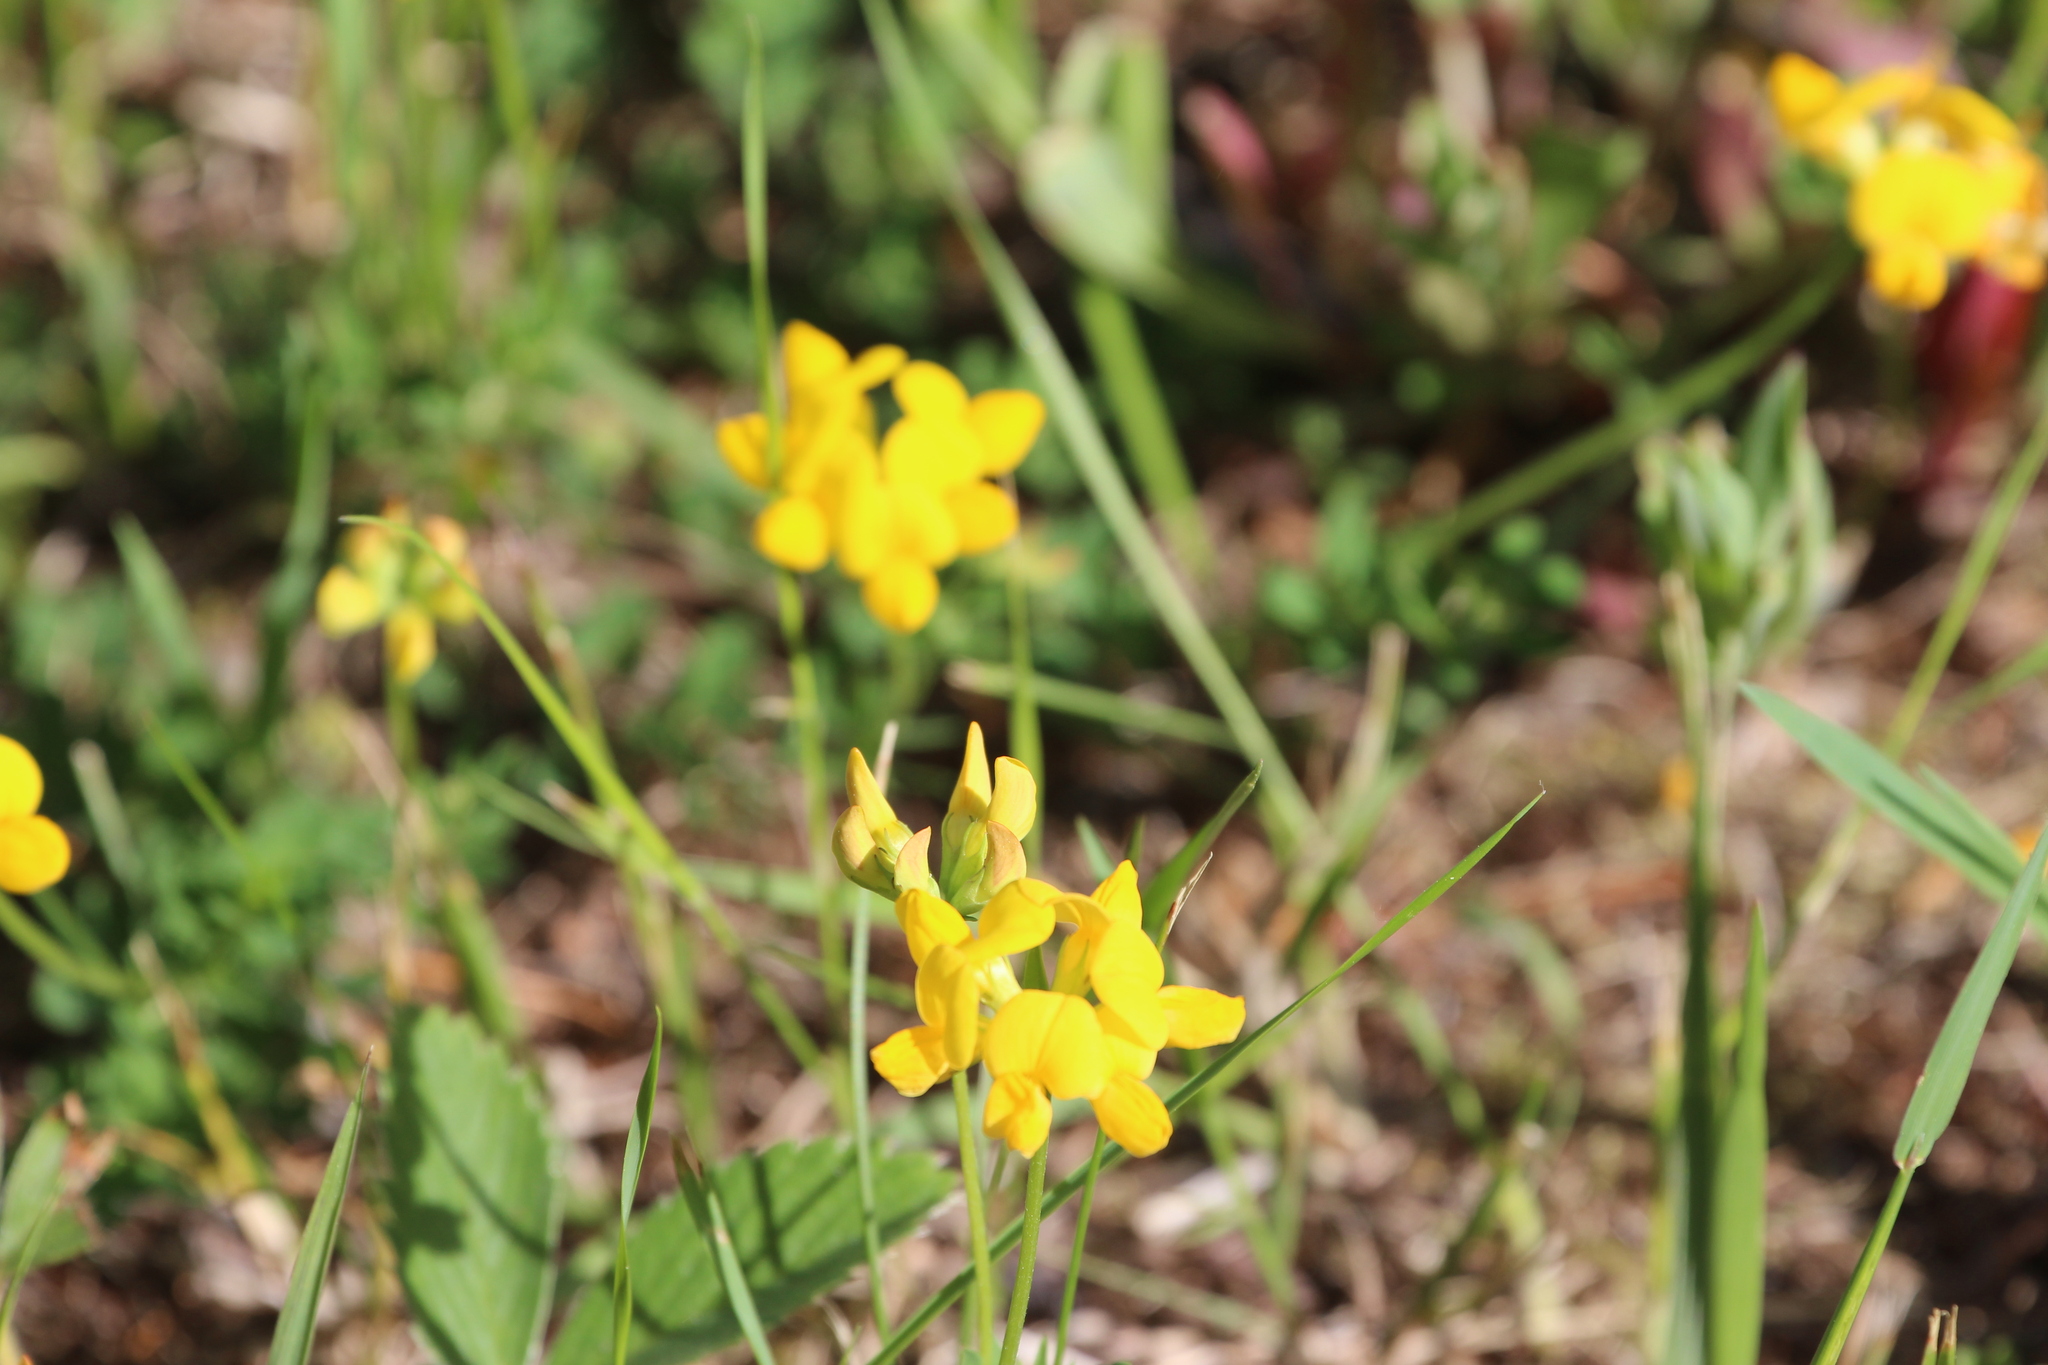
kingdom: Plantae
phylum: Tracheophyta
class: Magnoliopsida
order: Fabales
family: Fabaceae
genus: Lotus
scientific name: Lotus corniculatus
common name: Common bird's-foot-trefoil
